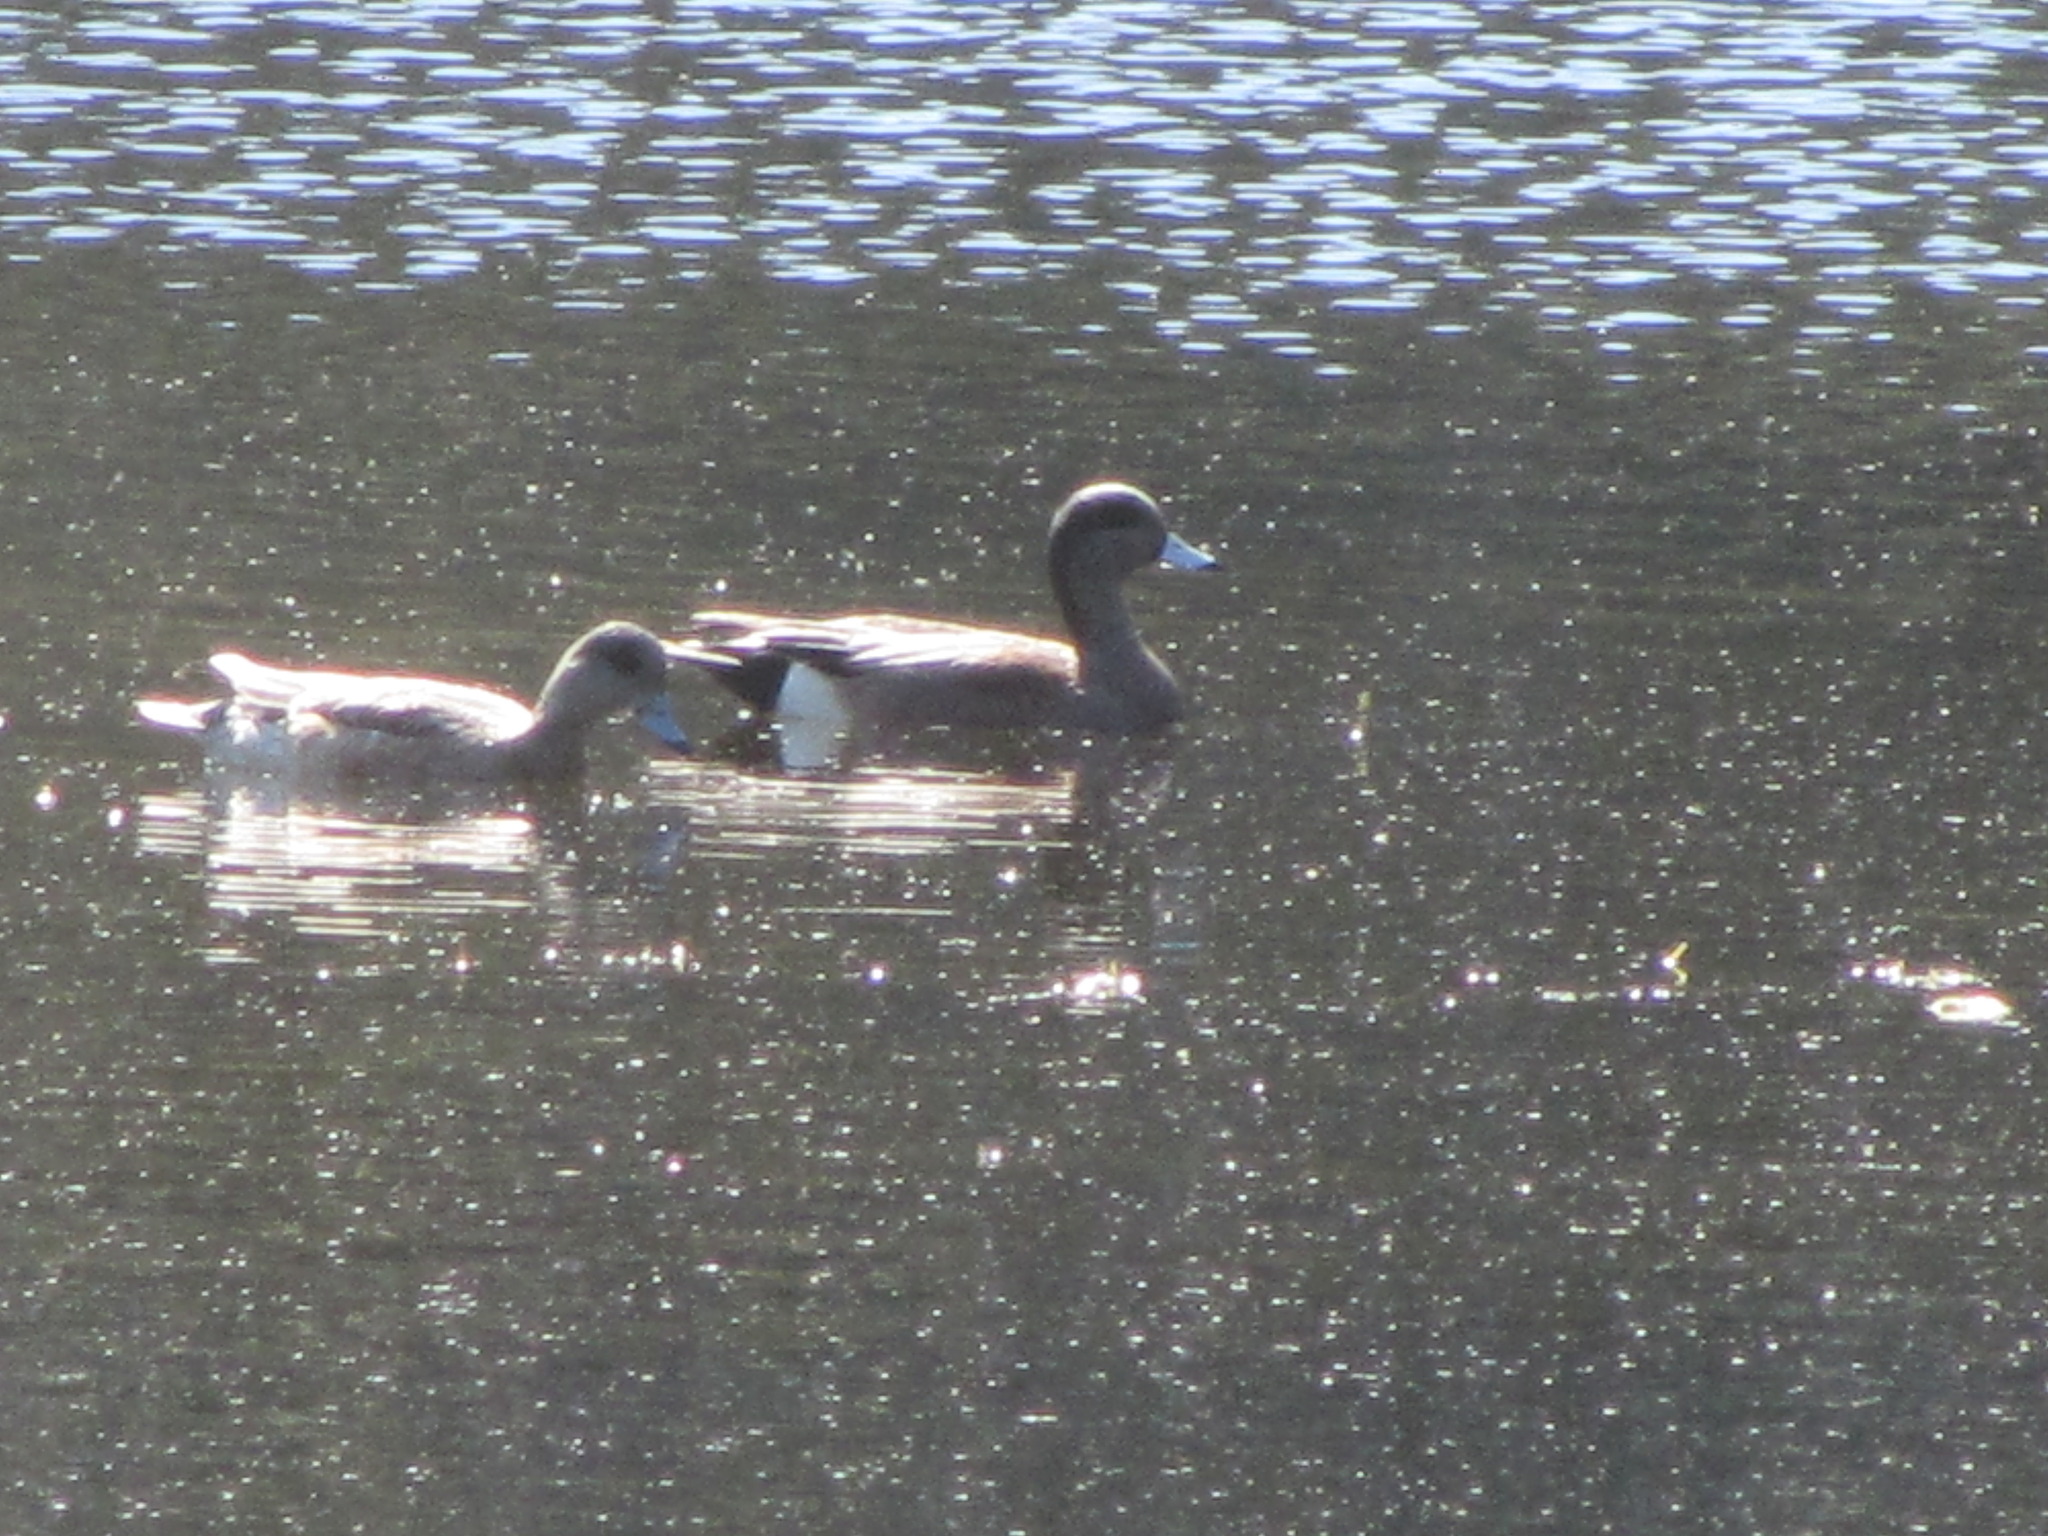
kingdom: Animalia
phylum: Chordata
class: Aves
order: Anseriformes
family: Anatidae
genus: Mareca
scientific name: Mareca americana
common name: American wigeon
